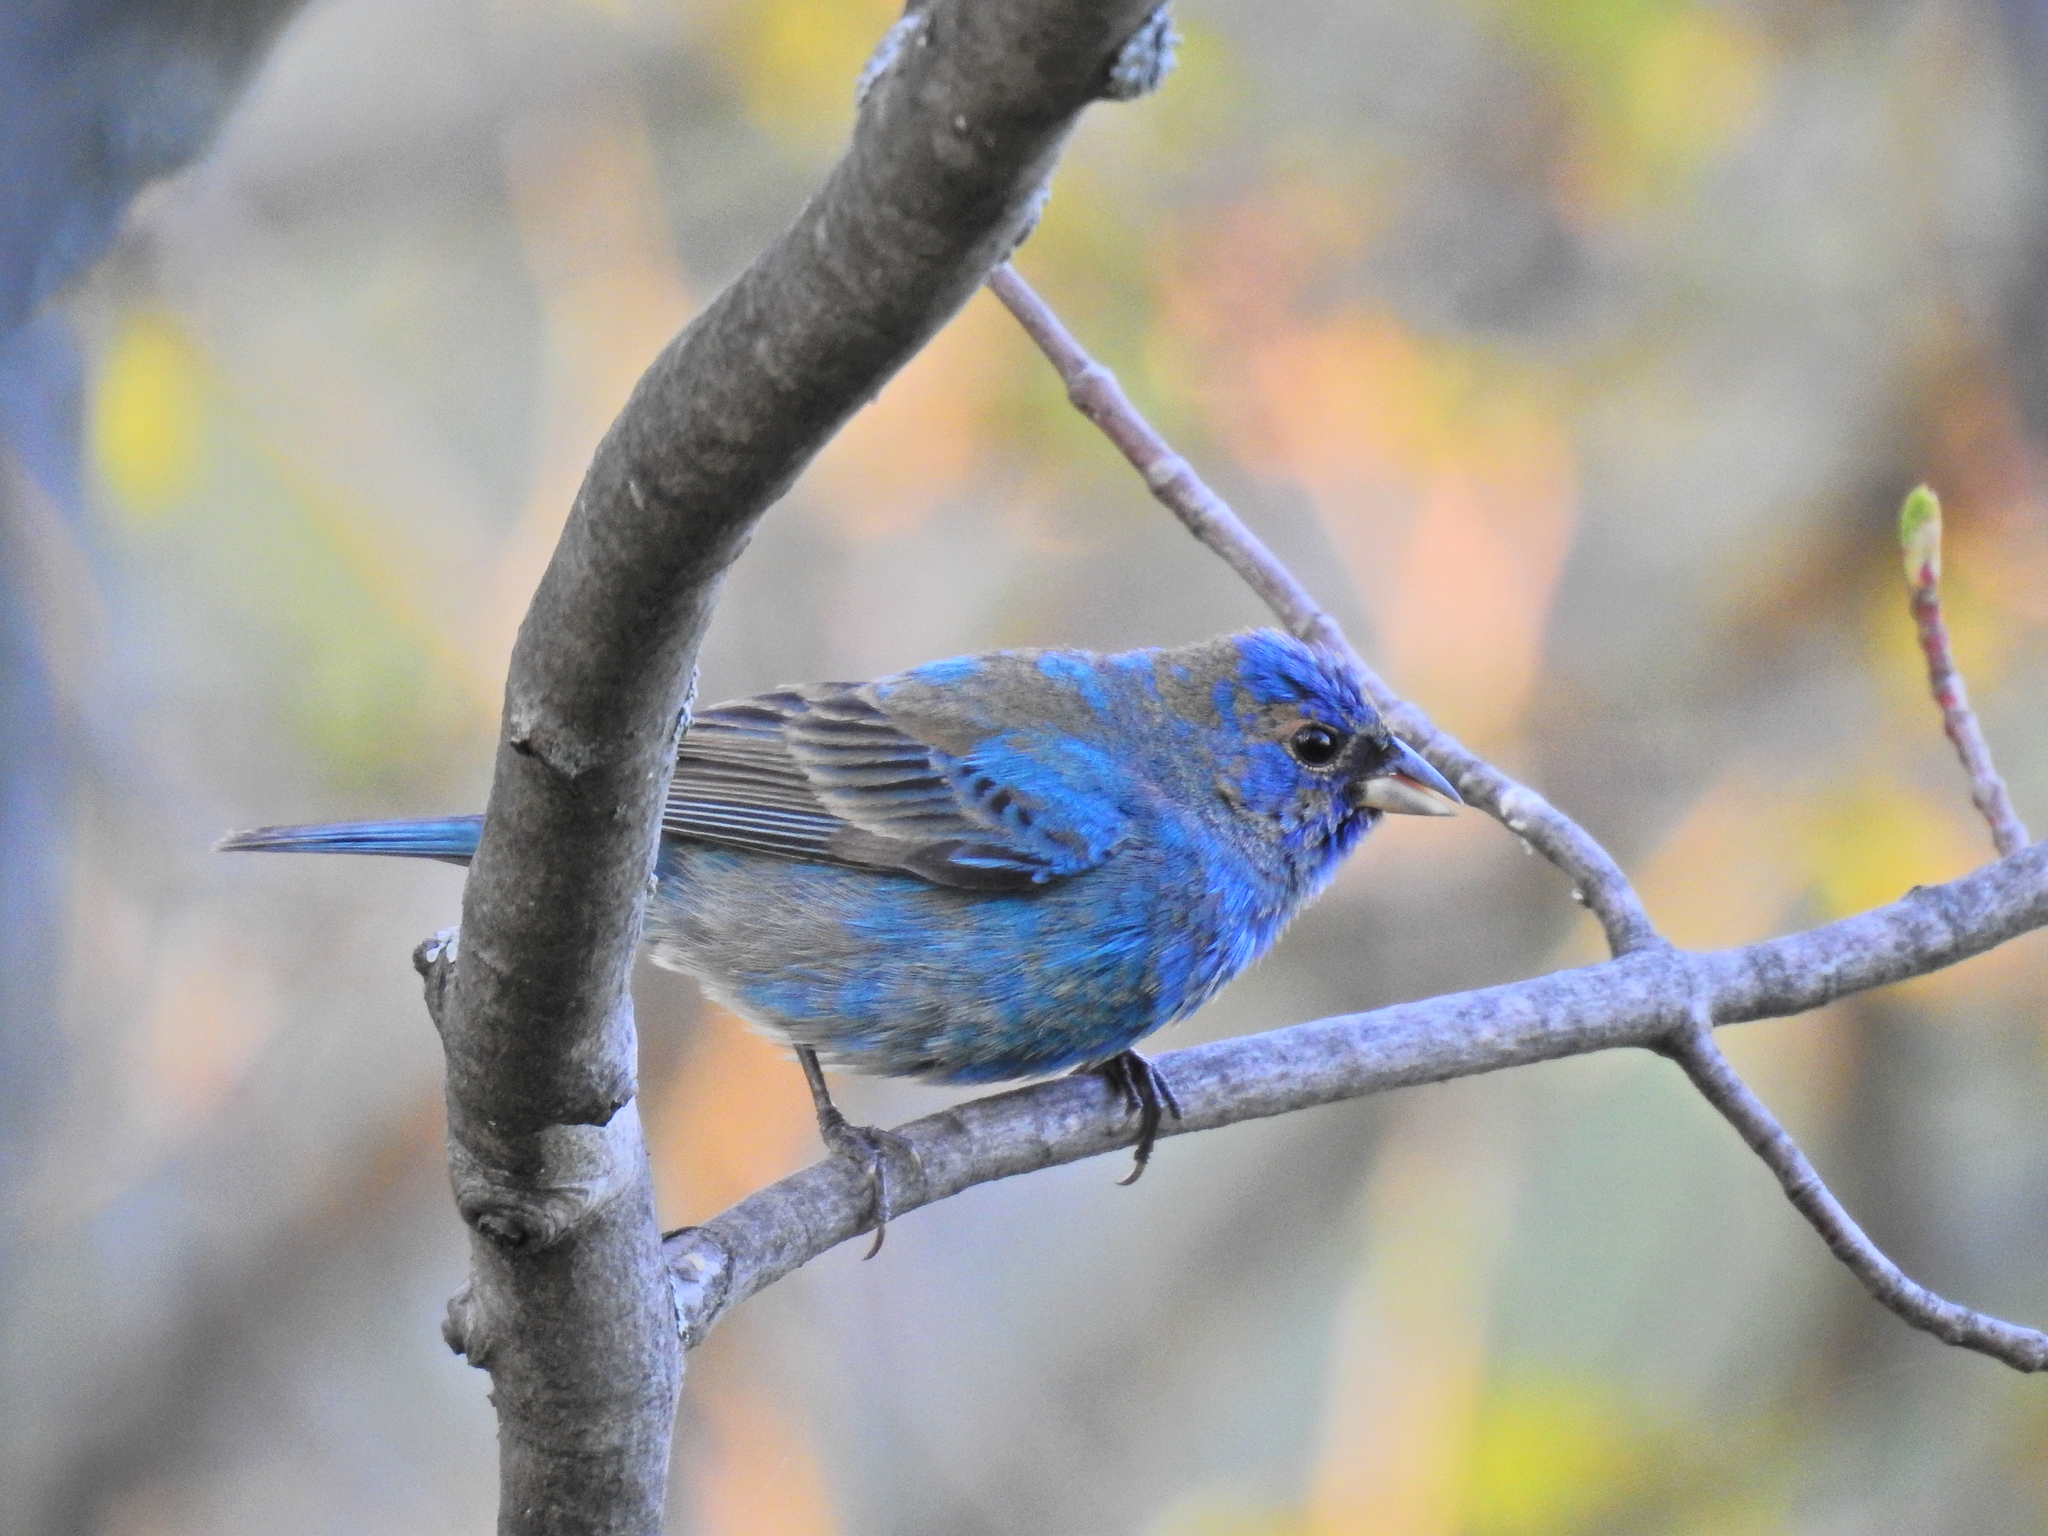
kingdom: Animalia
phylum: Chordata
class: Aves
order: Passeriformes
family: Cardinalidae
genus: Passerina
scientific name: Passerina cyanea
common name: Indigo bunting
